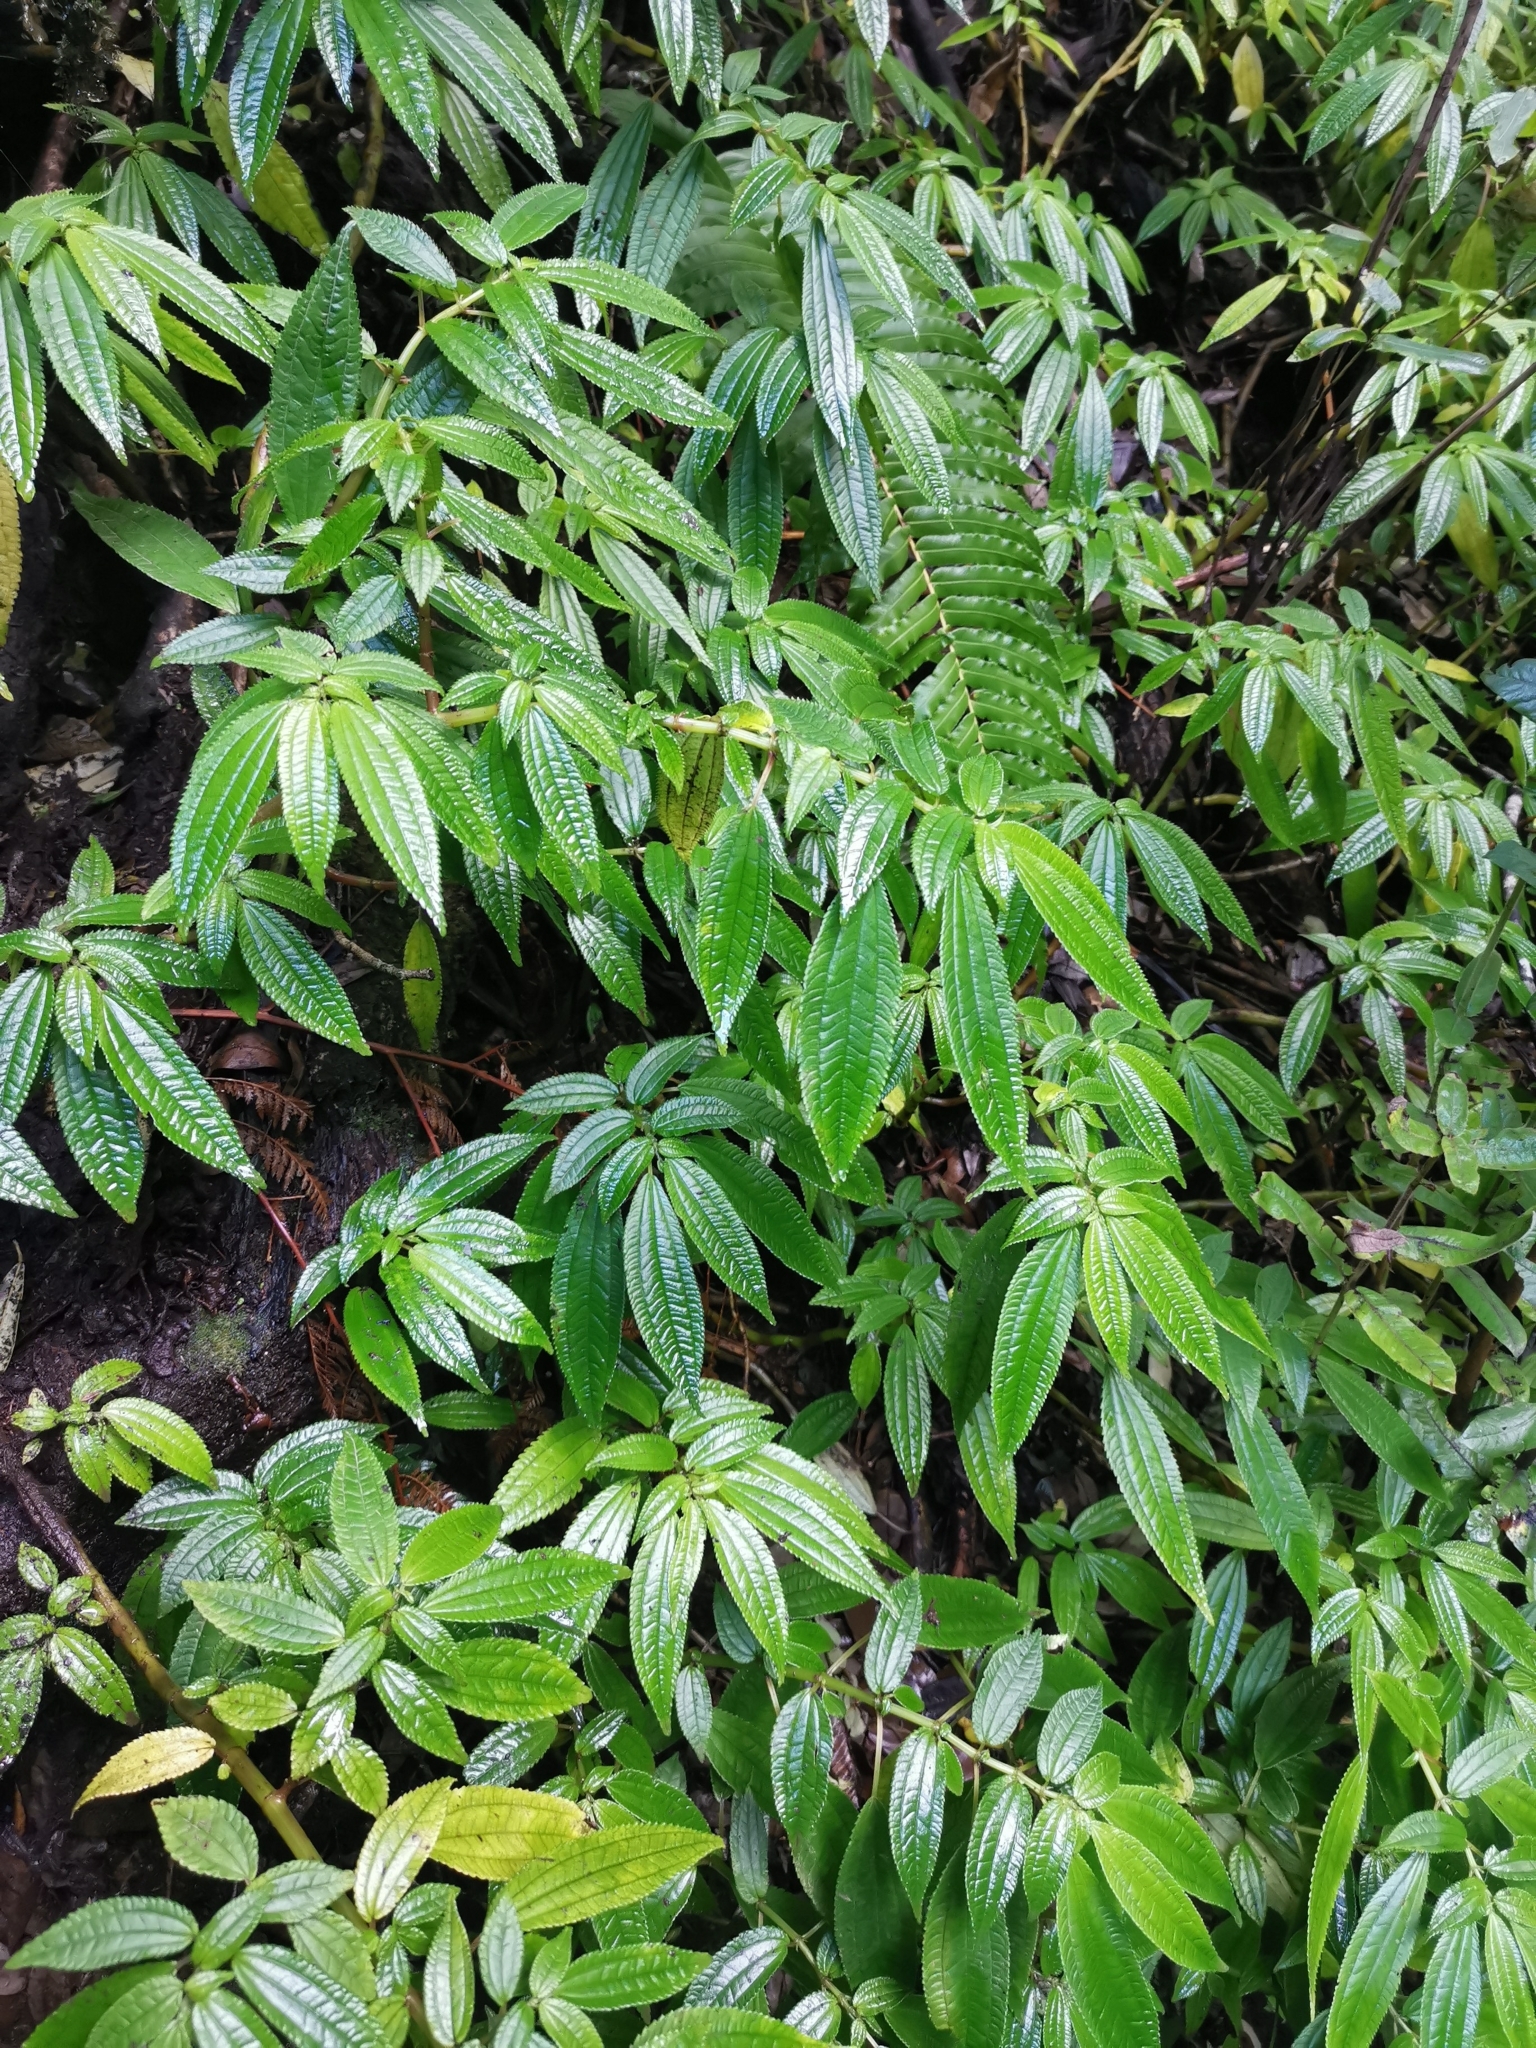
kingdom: Plantae
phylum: Tracheophyta
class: Magnoliopsida
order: Rosales
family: Urticaceae
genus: Pilea
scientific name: Pilea elegans
